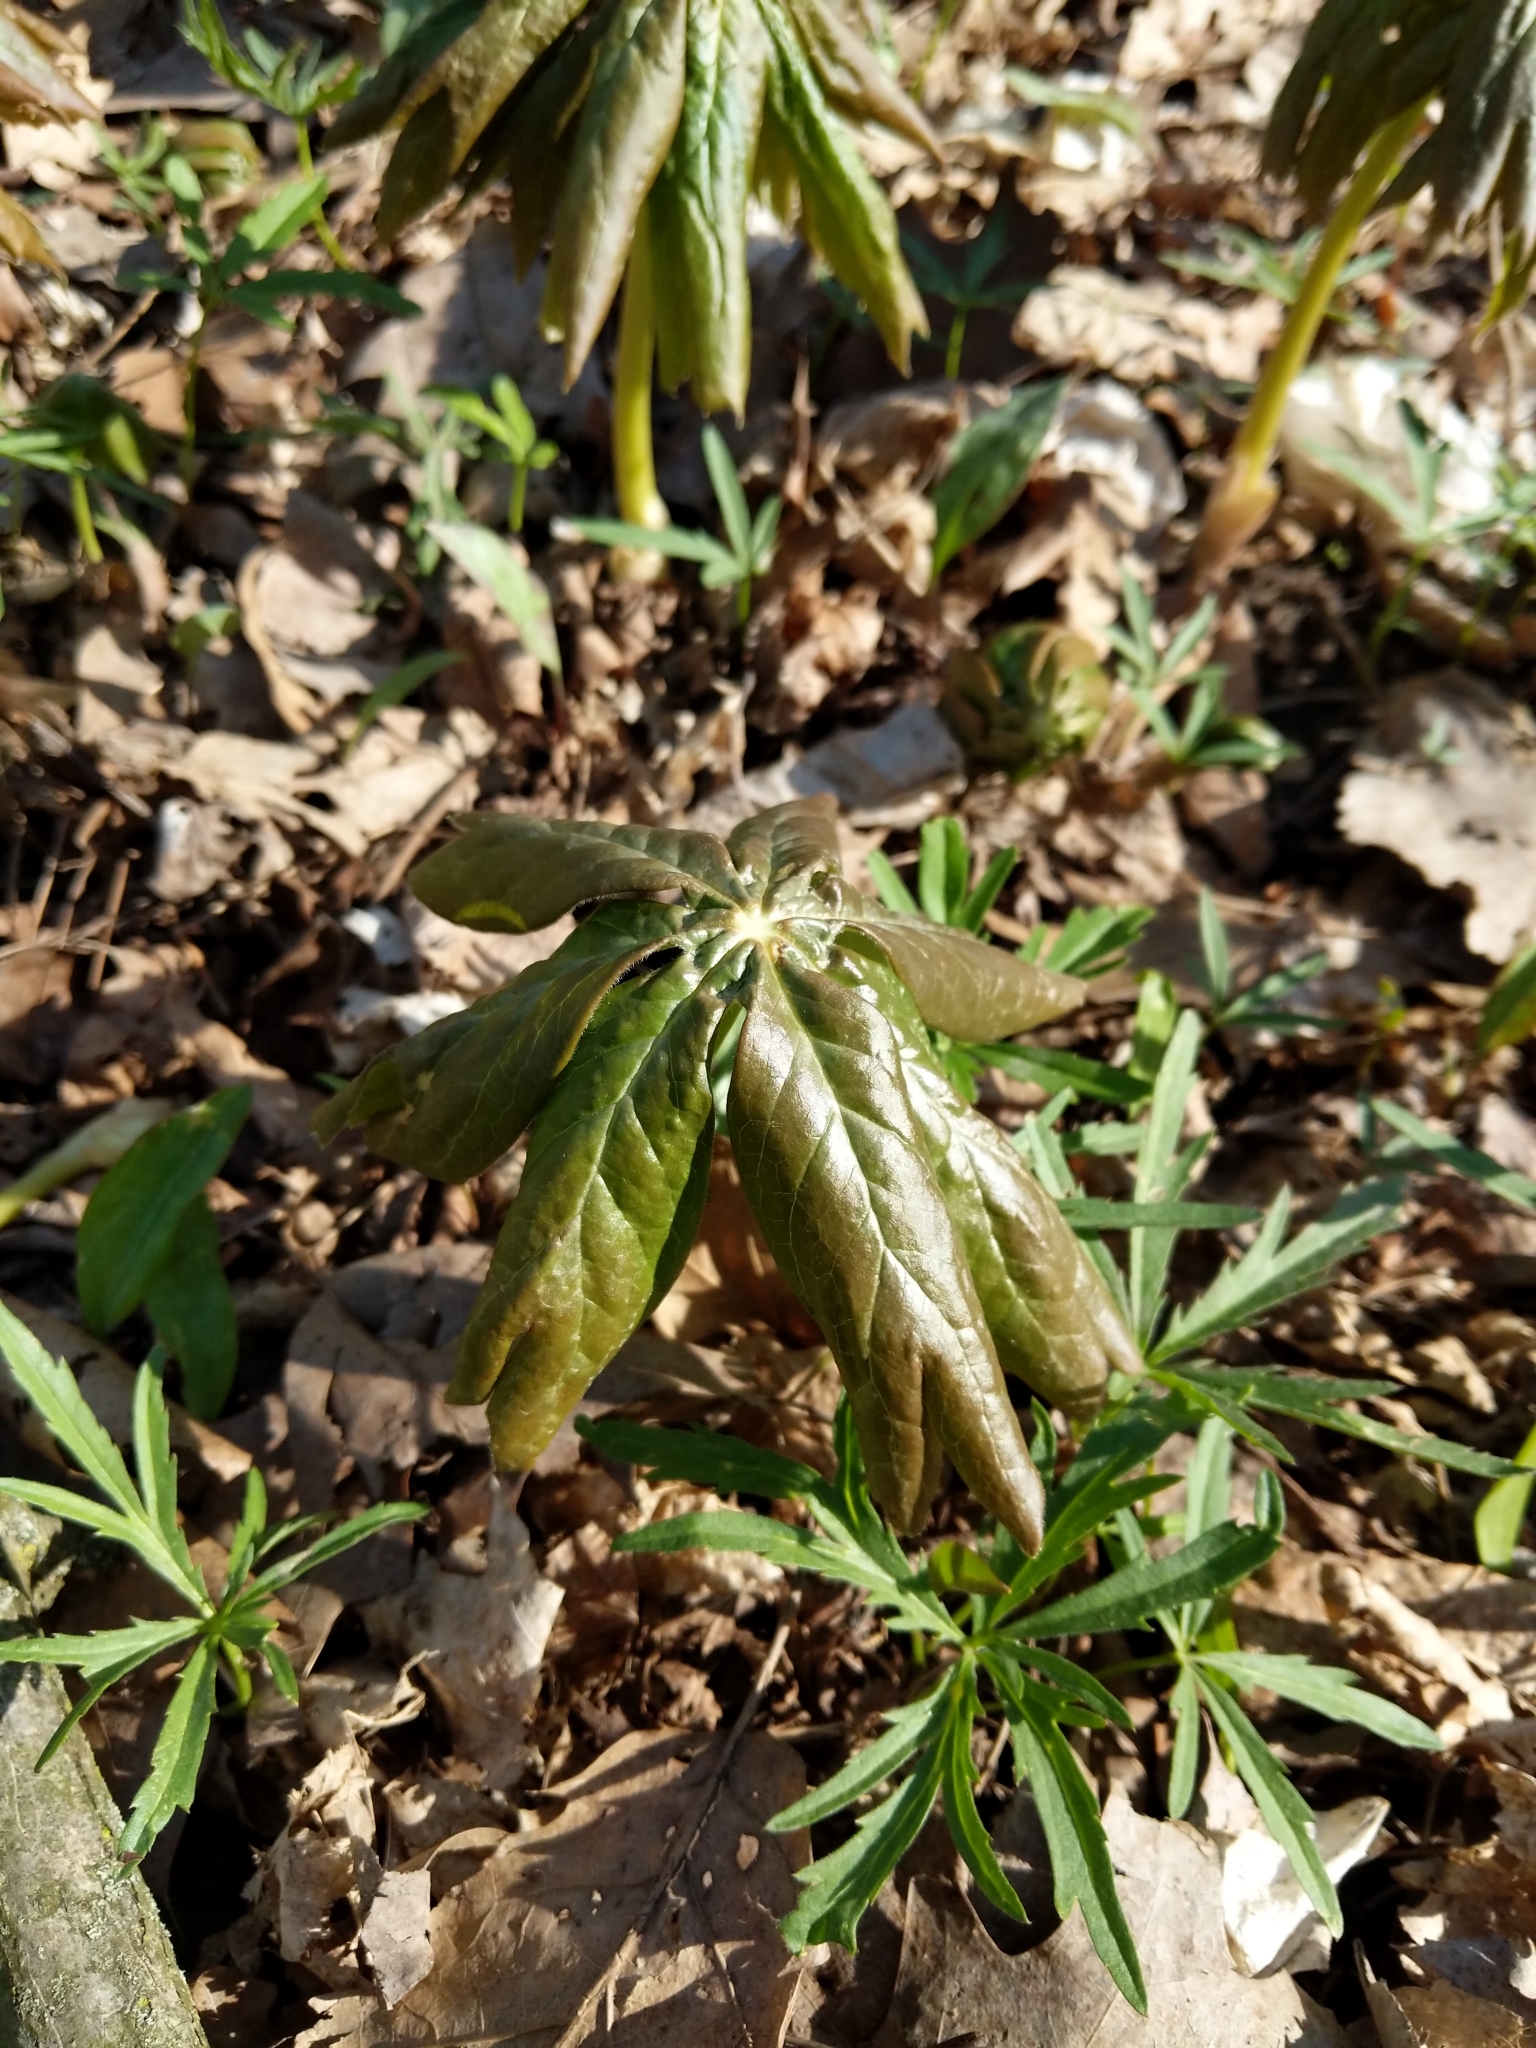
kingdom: Plantae
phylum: Tracheophyta
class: Magnoliopsida
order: Ranunculales
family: Berberidaceae
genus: Podophyllum
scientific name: Podophyllum peltatum
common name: Wild mandrake
